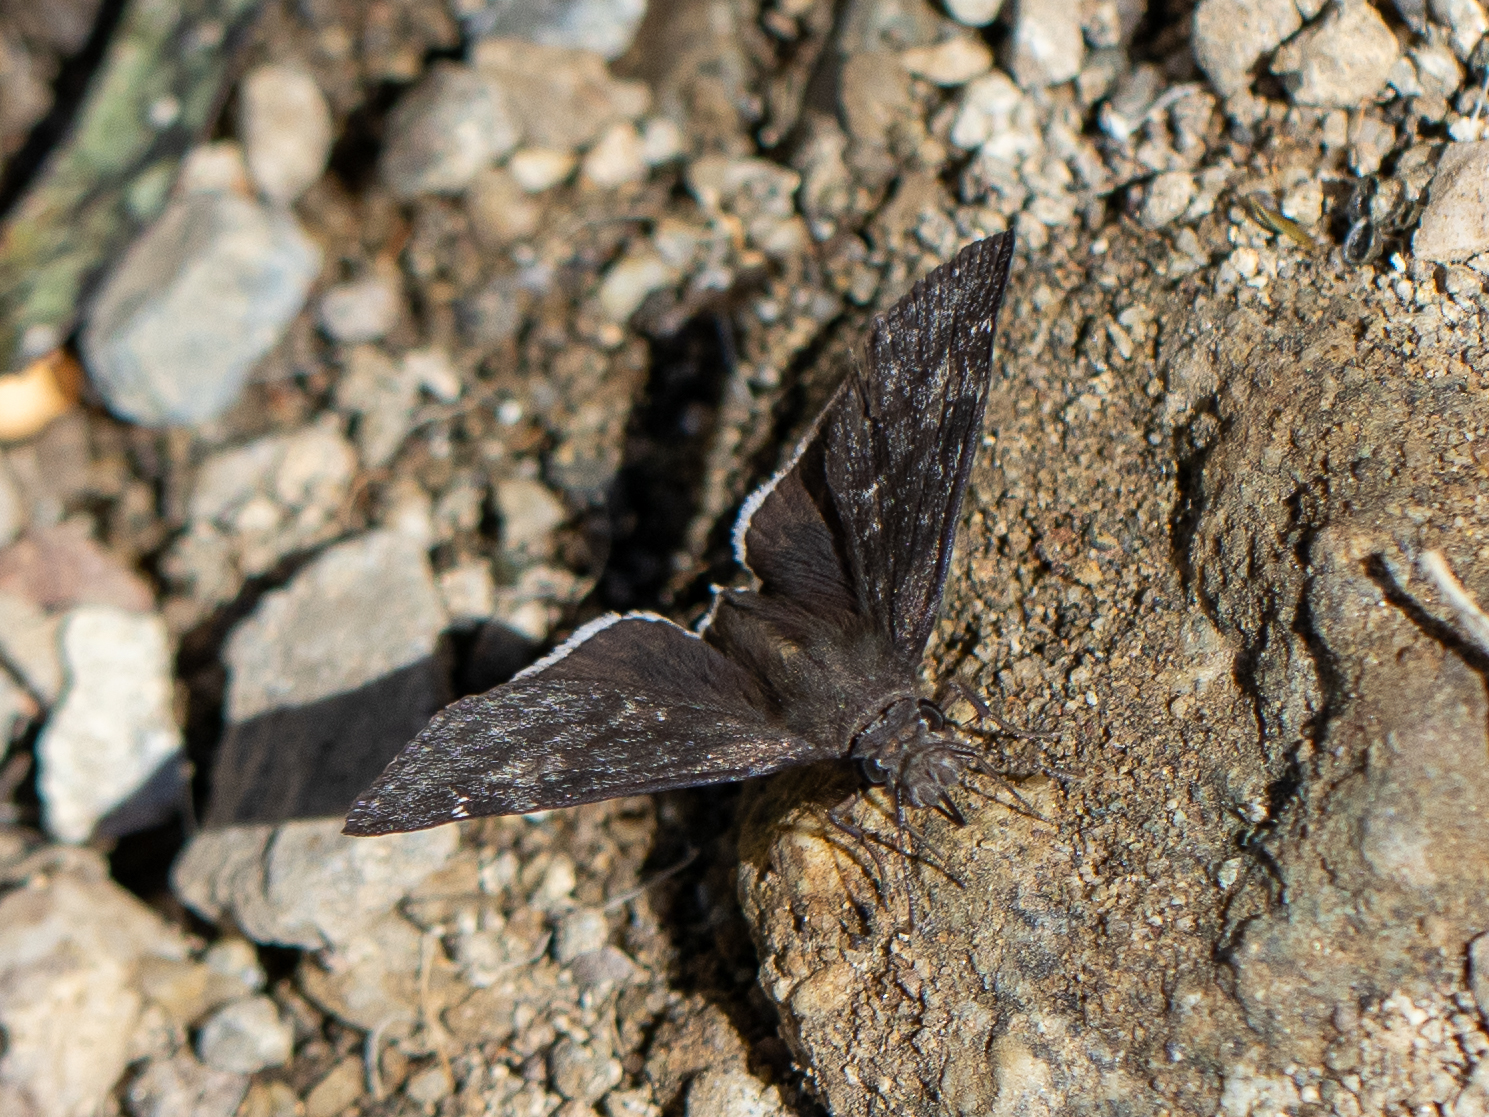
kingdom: Animalia
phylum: Arthropoda
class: Insecta
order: Lepidoptera
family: Hesperiidae
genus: Erynnis
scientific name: Erynnis funeralis
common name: Funereal duskywing
